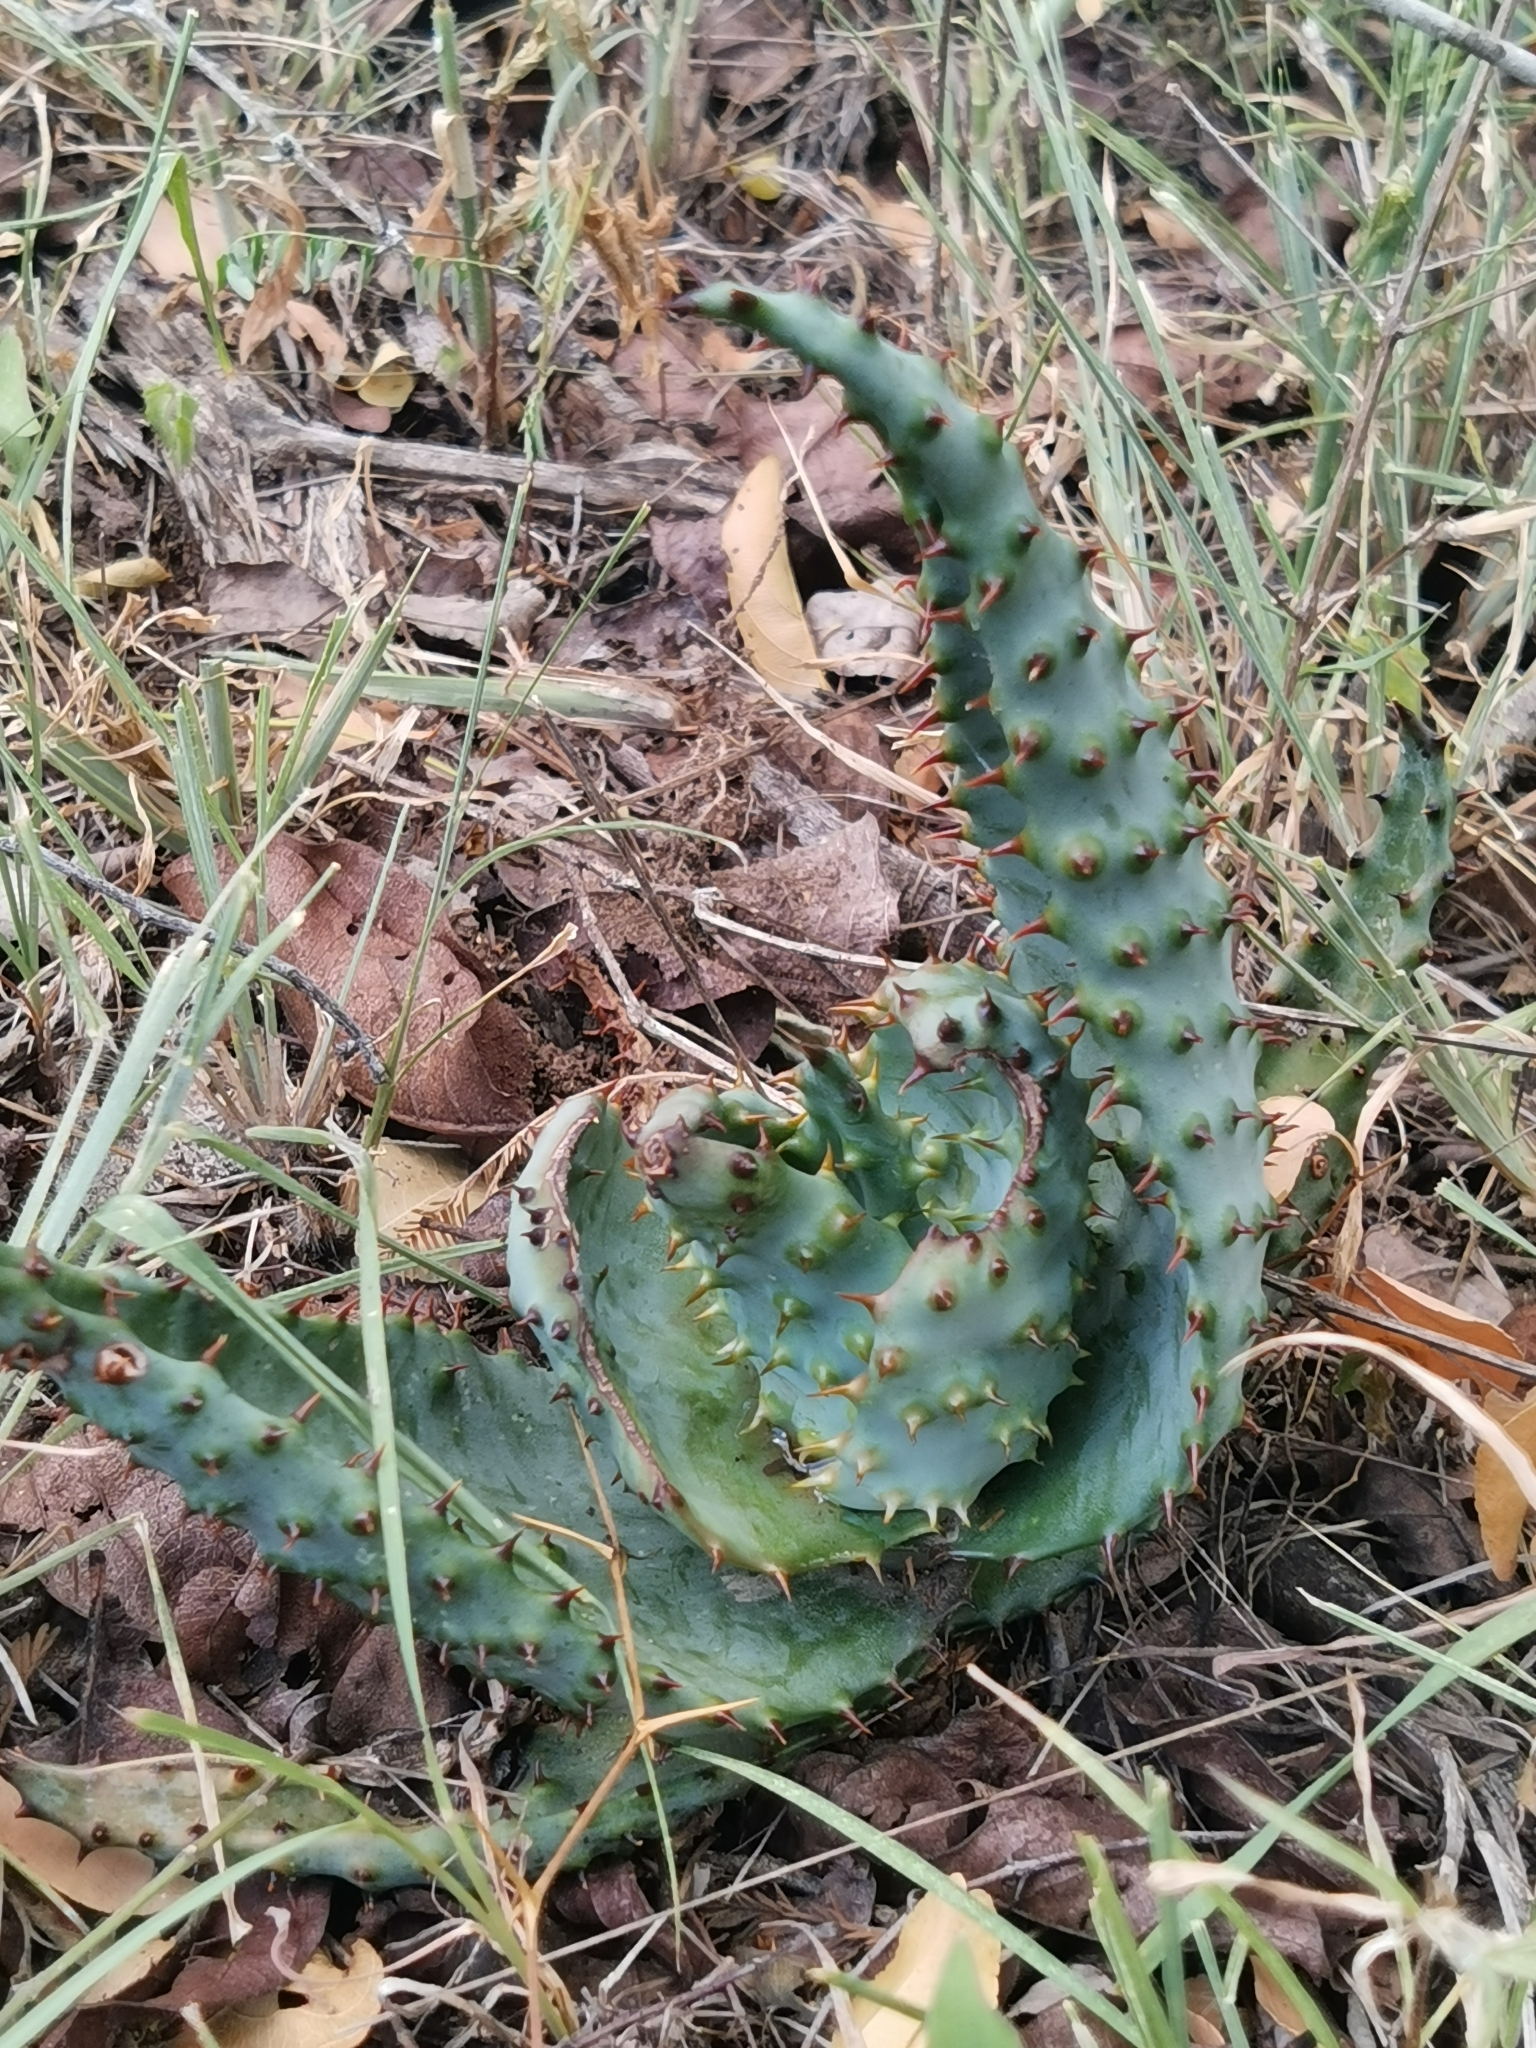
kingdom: Plantae
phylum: Tracheophyta
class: Liliopsida
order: Asparagales
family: Asphodelaceae
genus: Aloe
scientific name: Aloe marlothii
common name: Flat-flowered aloe
